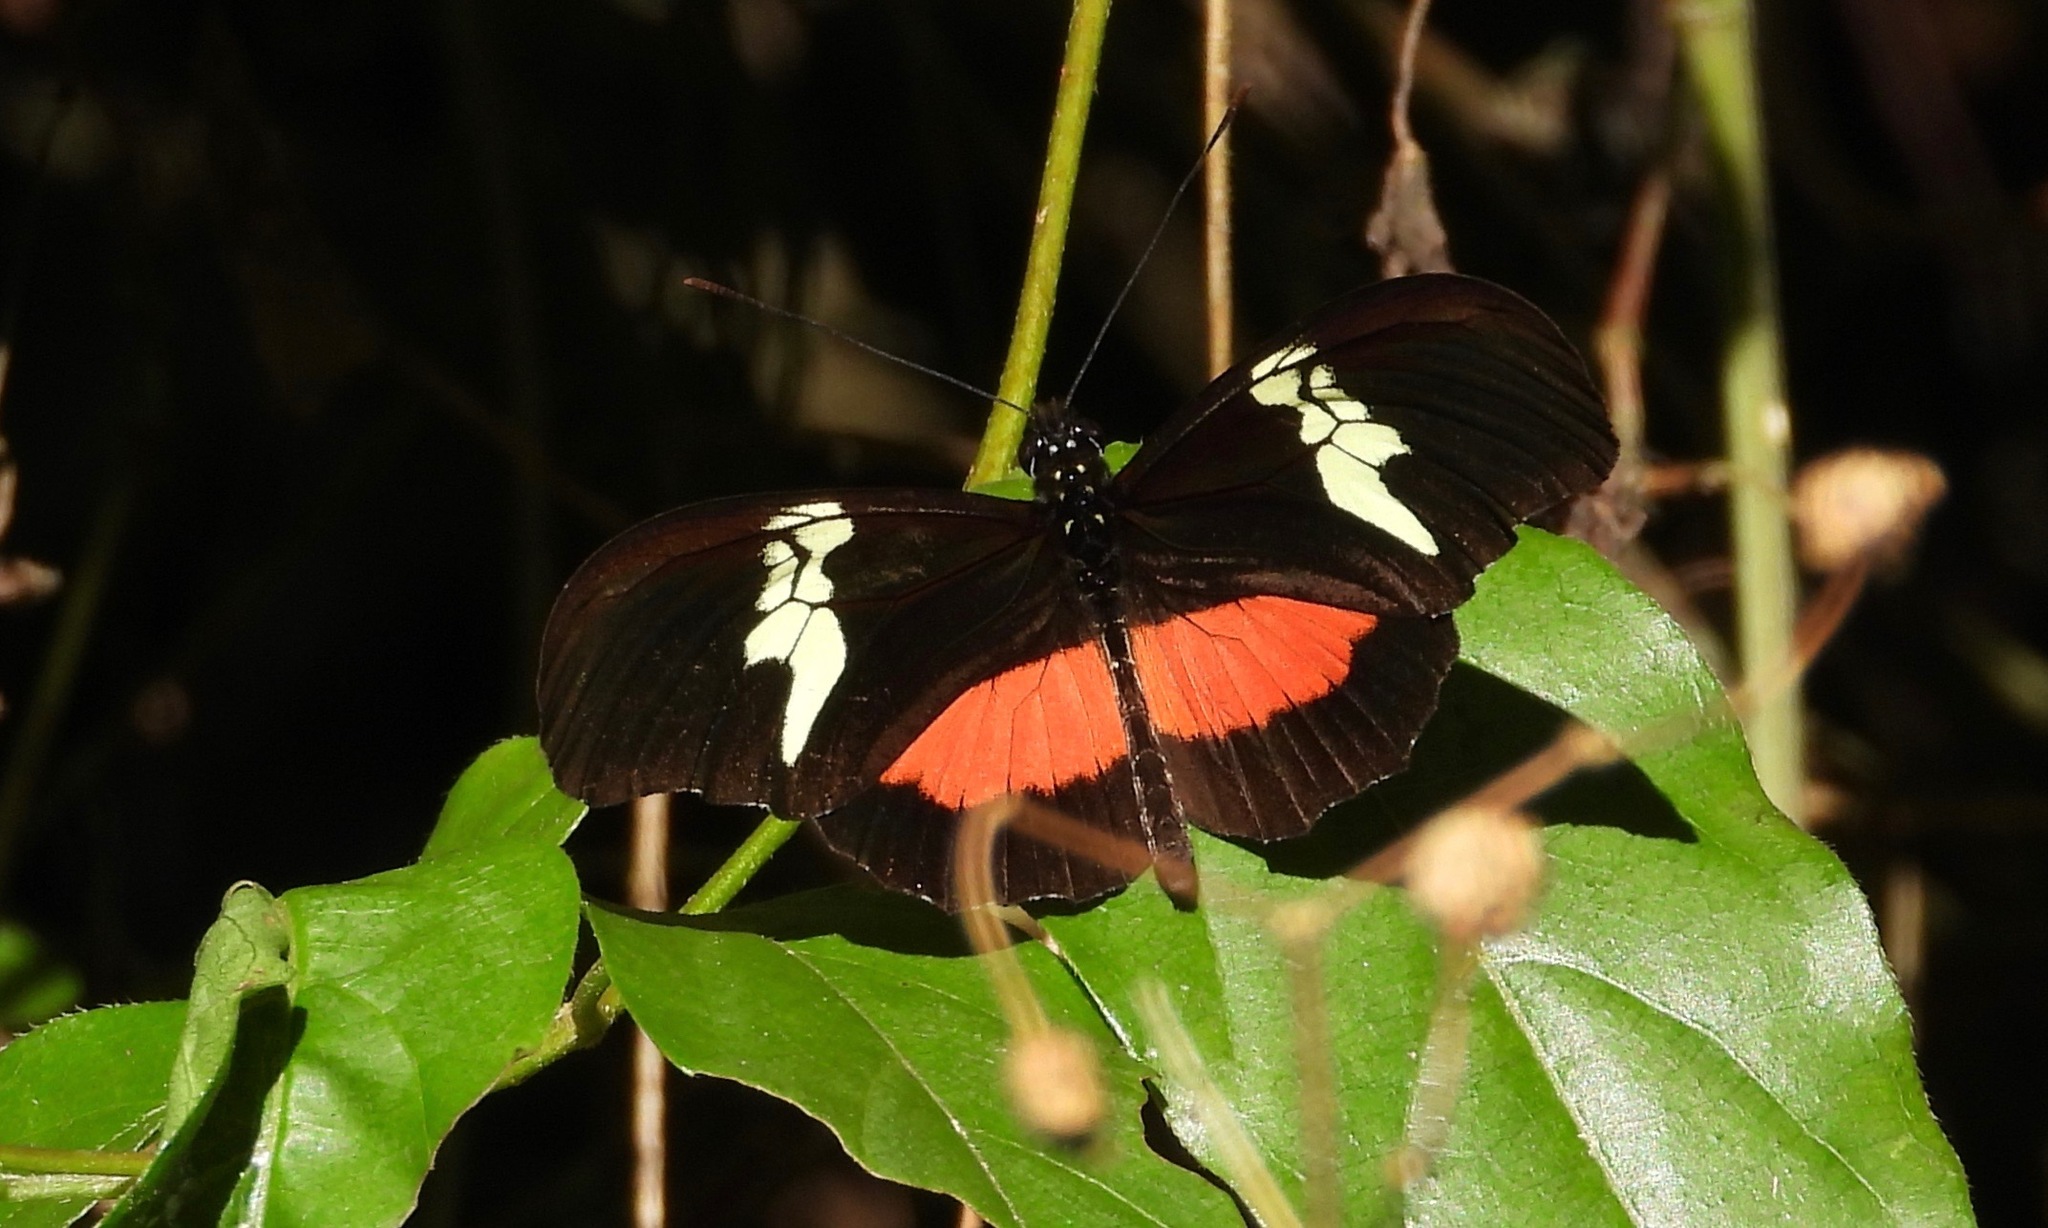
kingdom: Animalia
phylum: Arthropoda
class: Insecta
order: Lepidoptera
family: Nymphalidae
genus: Heliconius
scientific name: Heliconius hortense
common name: Mexican longwing
